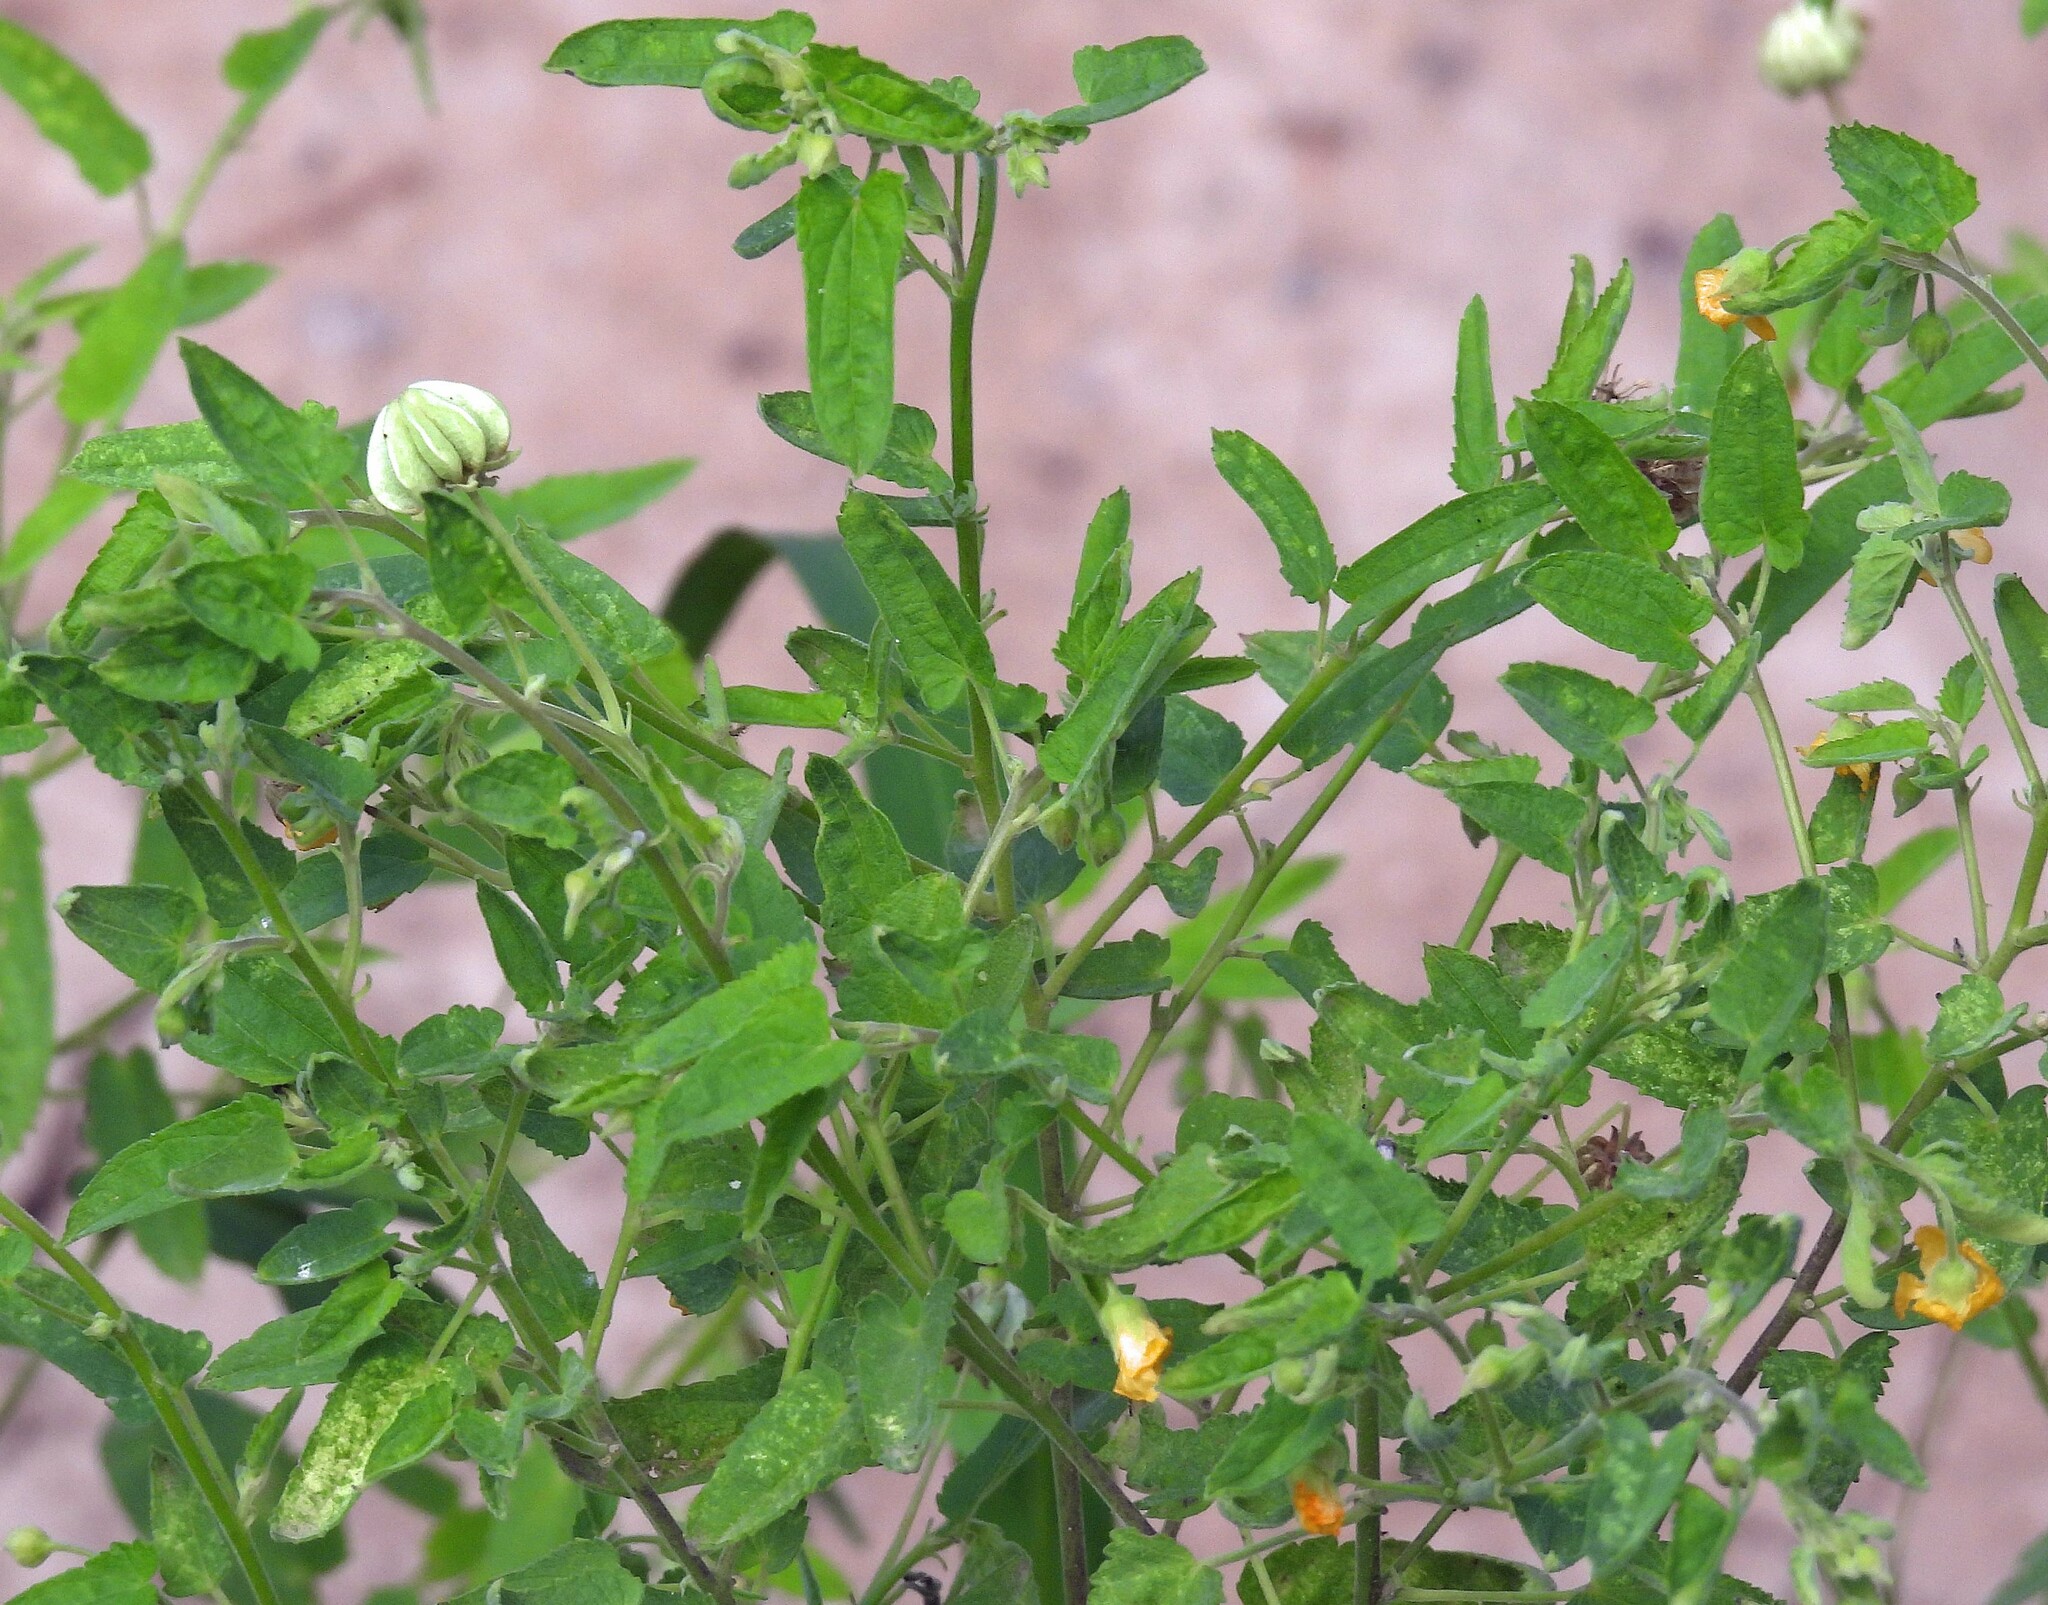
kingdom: Plantae
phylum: Tracheophyta
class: Magnoliopsida
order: Malvales
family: Malvaceae
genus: Gaya
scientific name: Gaya parviflora
